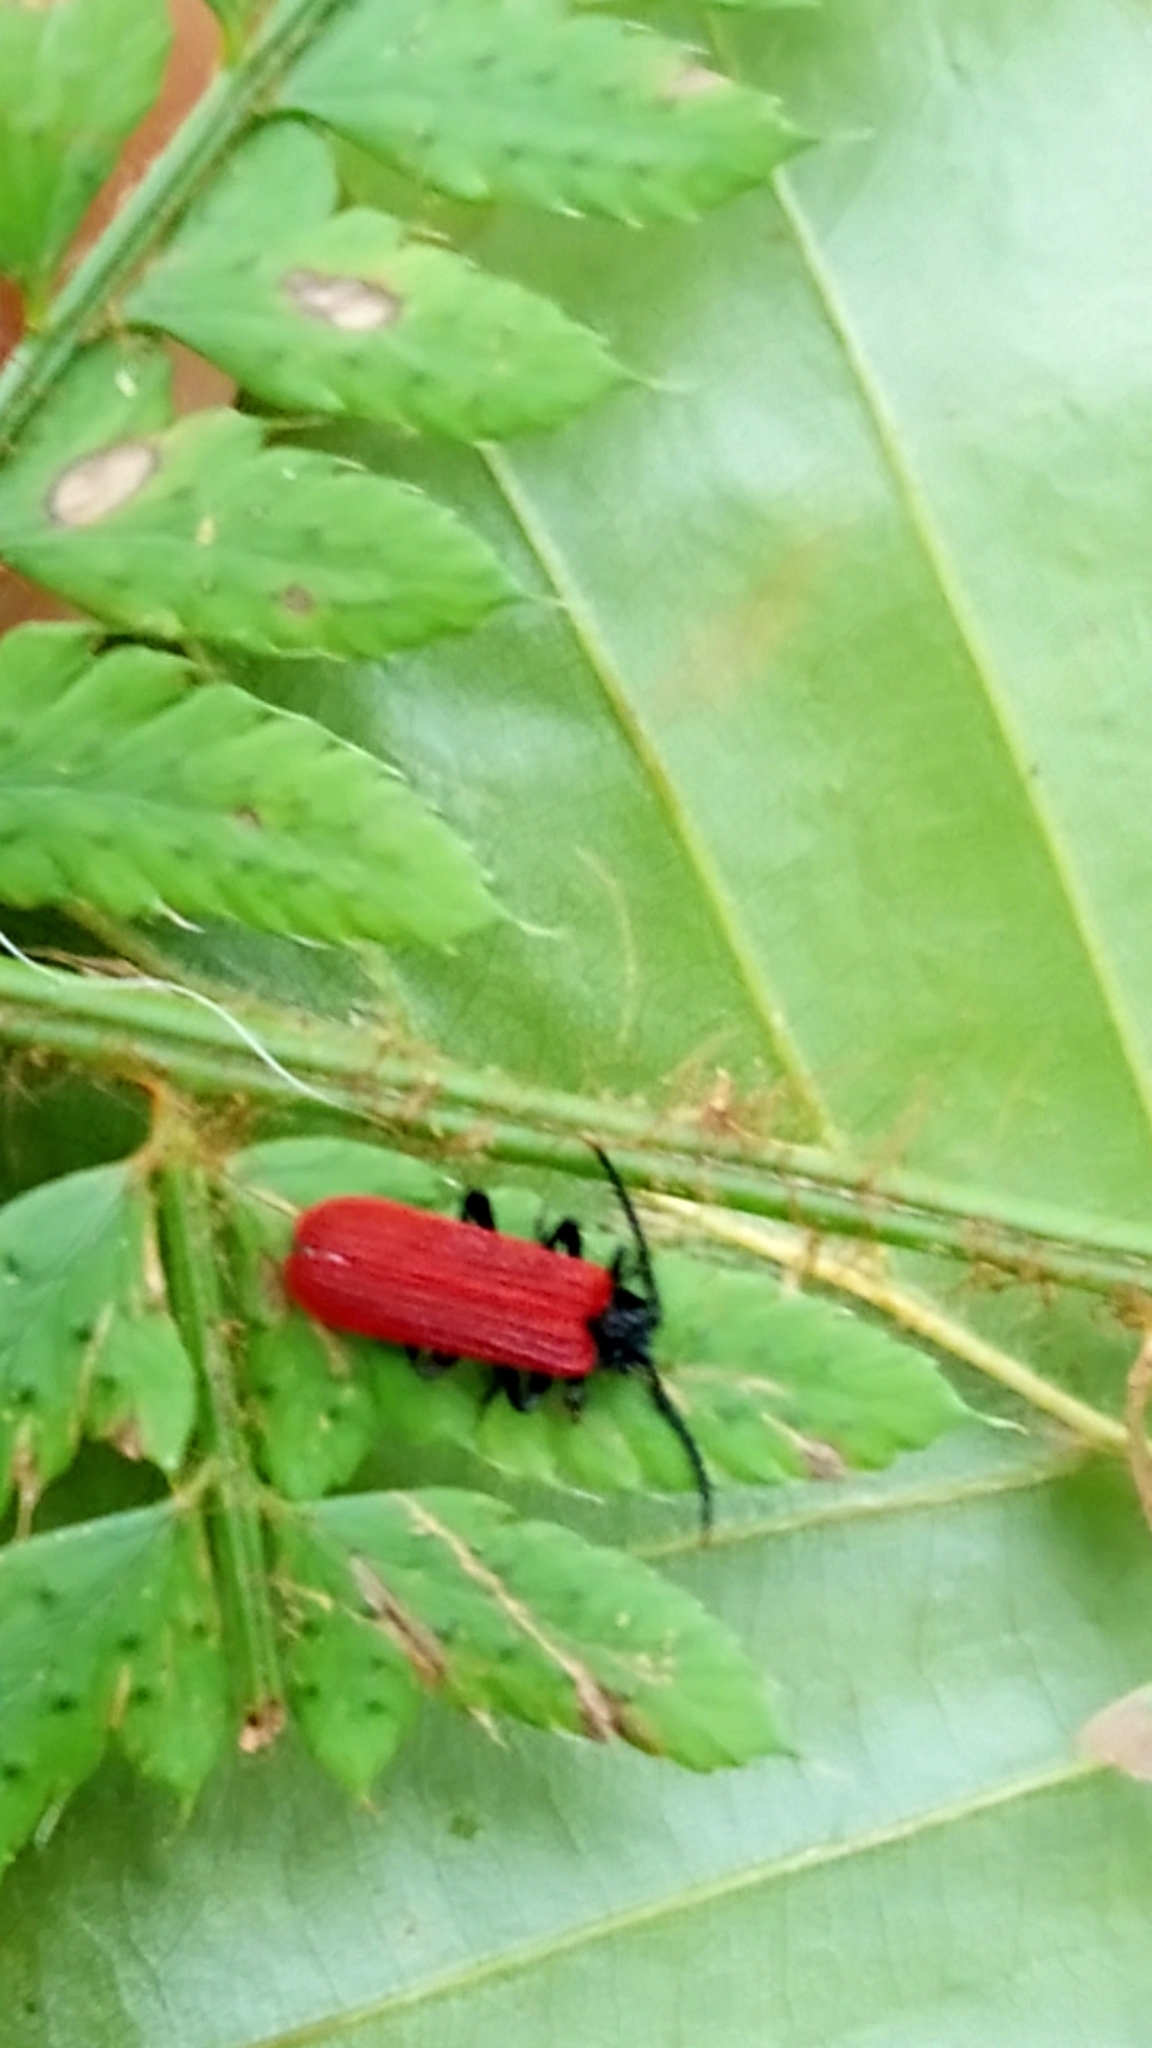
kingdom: Animalia
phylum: Arthropoda
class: Insecta
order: Coleoptera
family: Lycidae
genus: Platycis
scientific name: Platycis minutus
